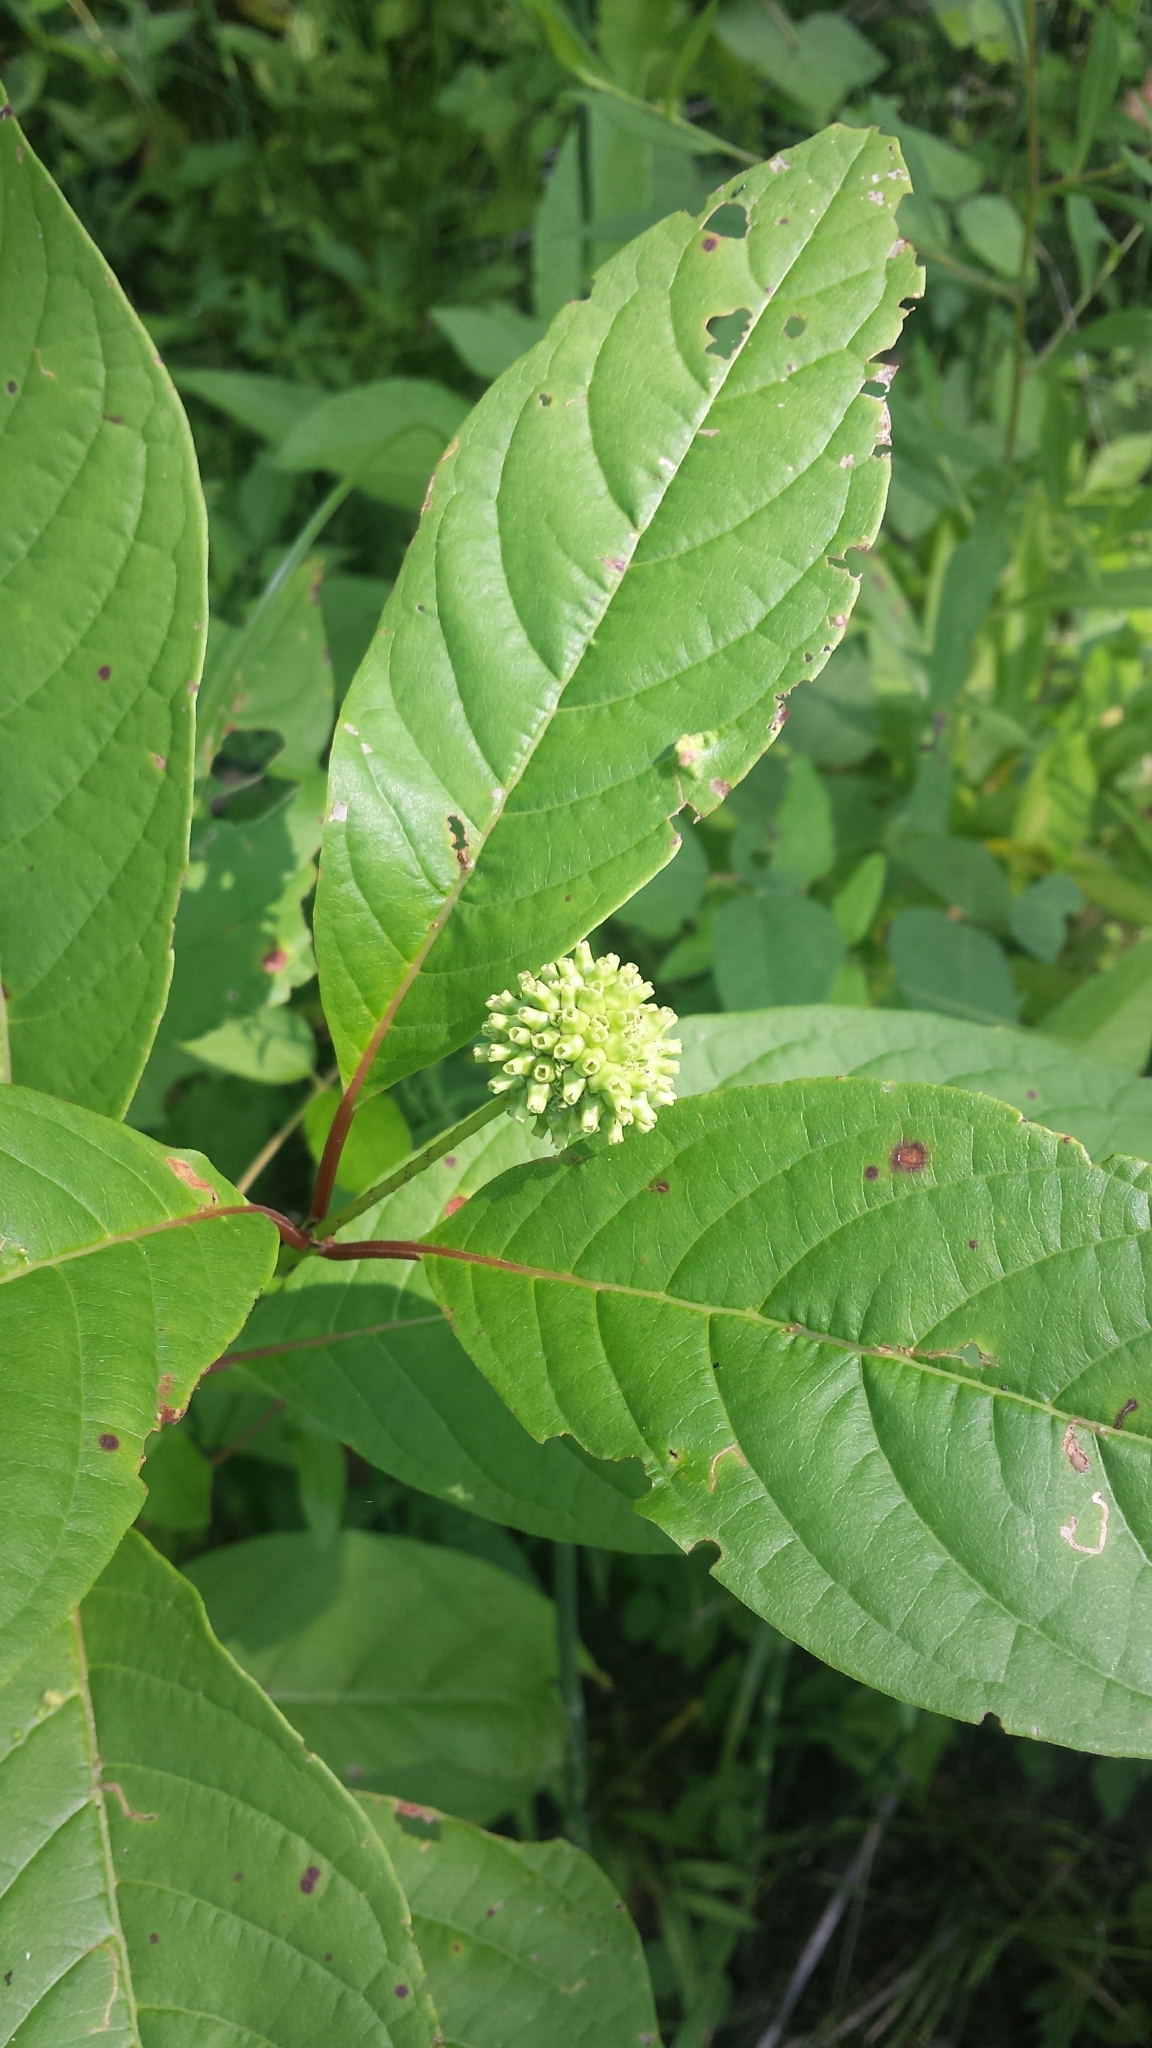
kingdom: Plantae
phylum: Tracheophyta
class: Magnoliopsida
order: Gentianales
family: Rubiaceae
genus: Cephalanthus
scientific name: Cephalanthus occidentalis
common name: Button-willow
